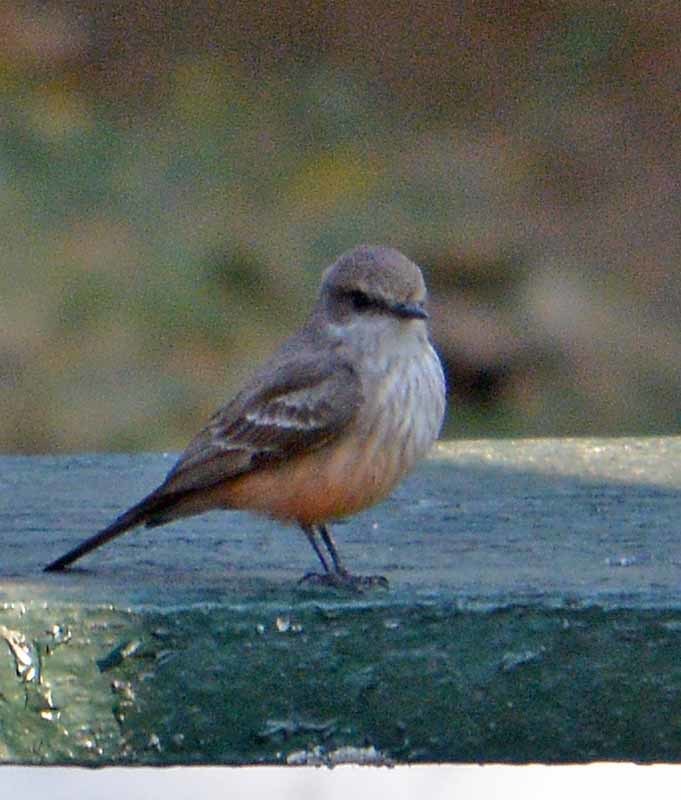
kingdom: Animalia
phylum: Chordata
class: Aves
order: Passeriformes
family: Tyrannidae
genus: Pyrocephalus
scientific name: Pyrocephalus rubinus
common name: Vermilion flycatcher
